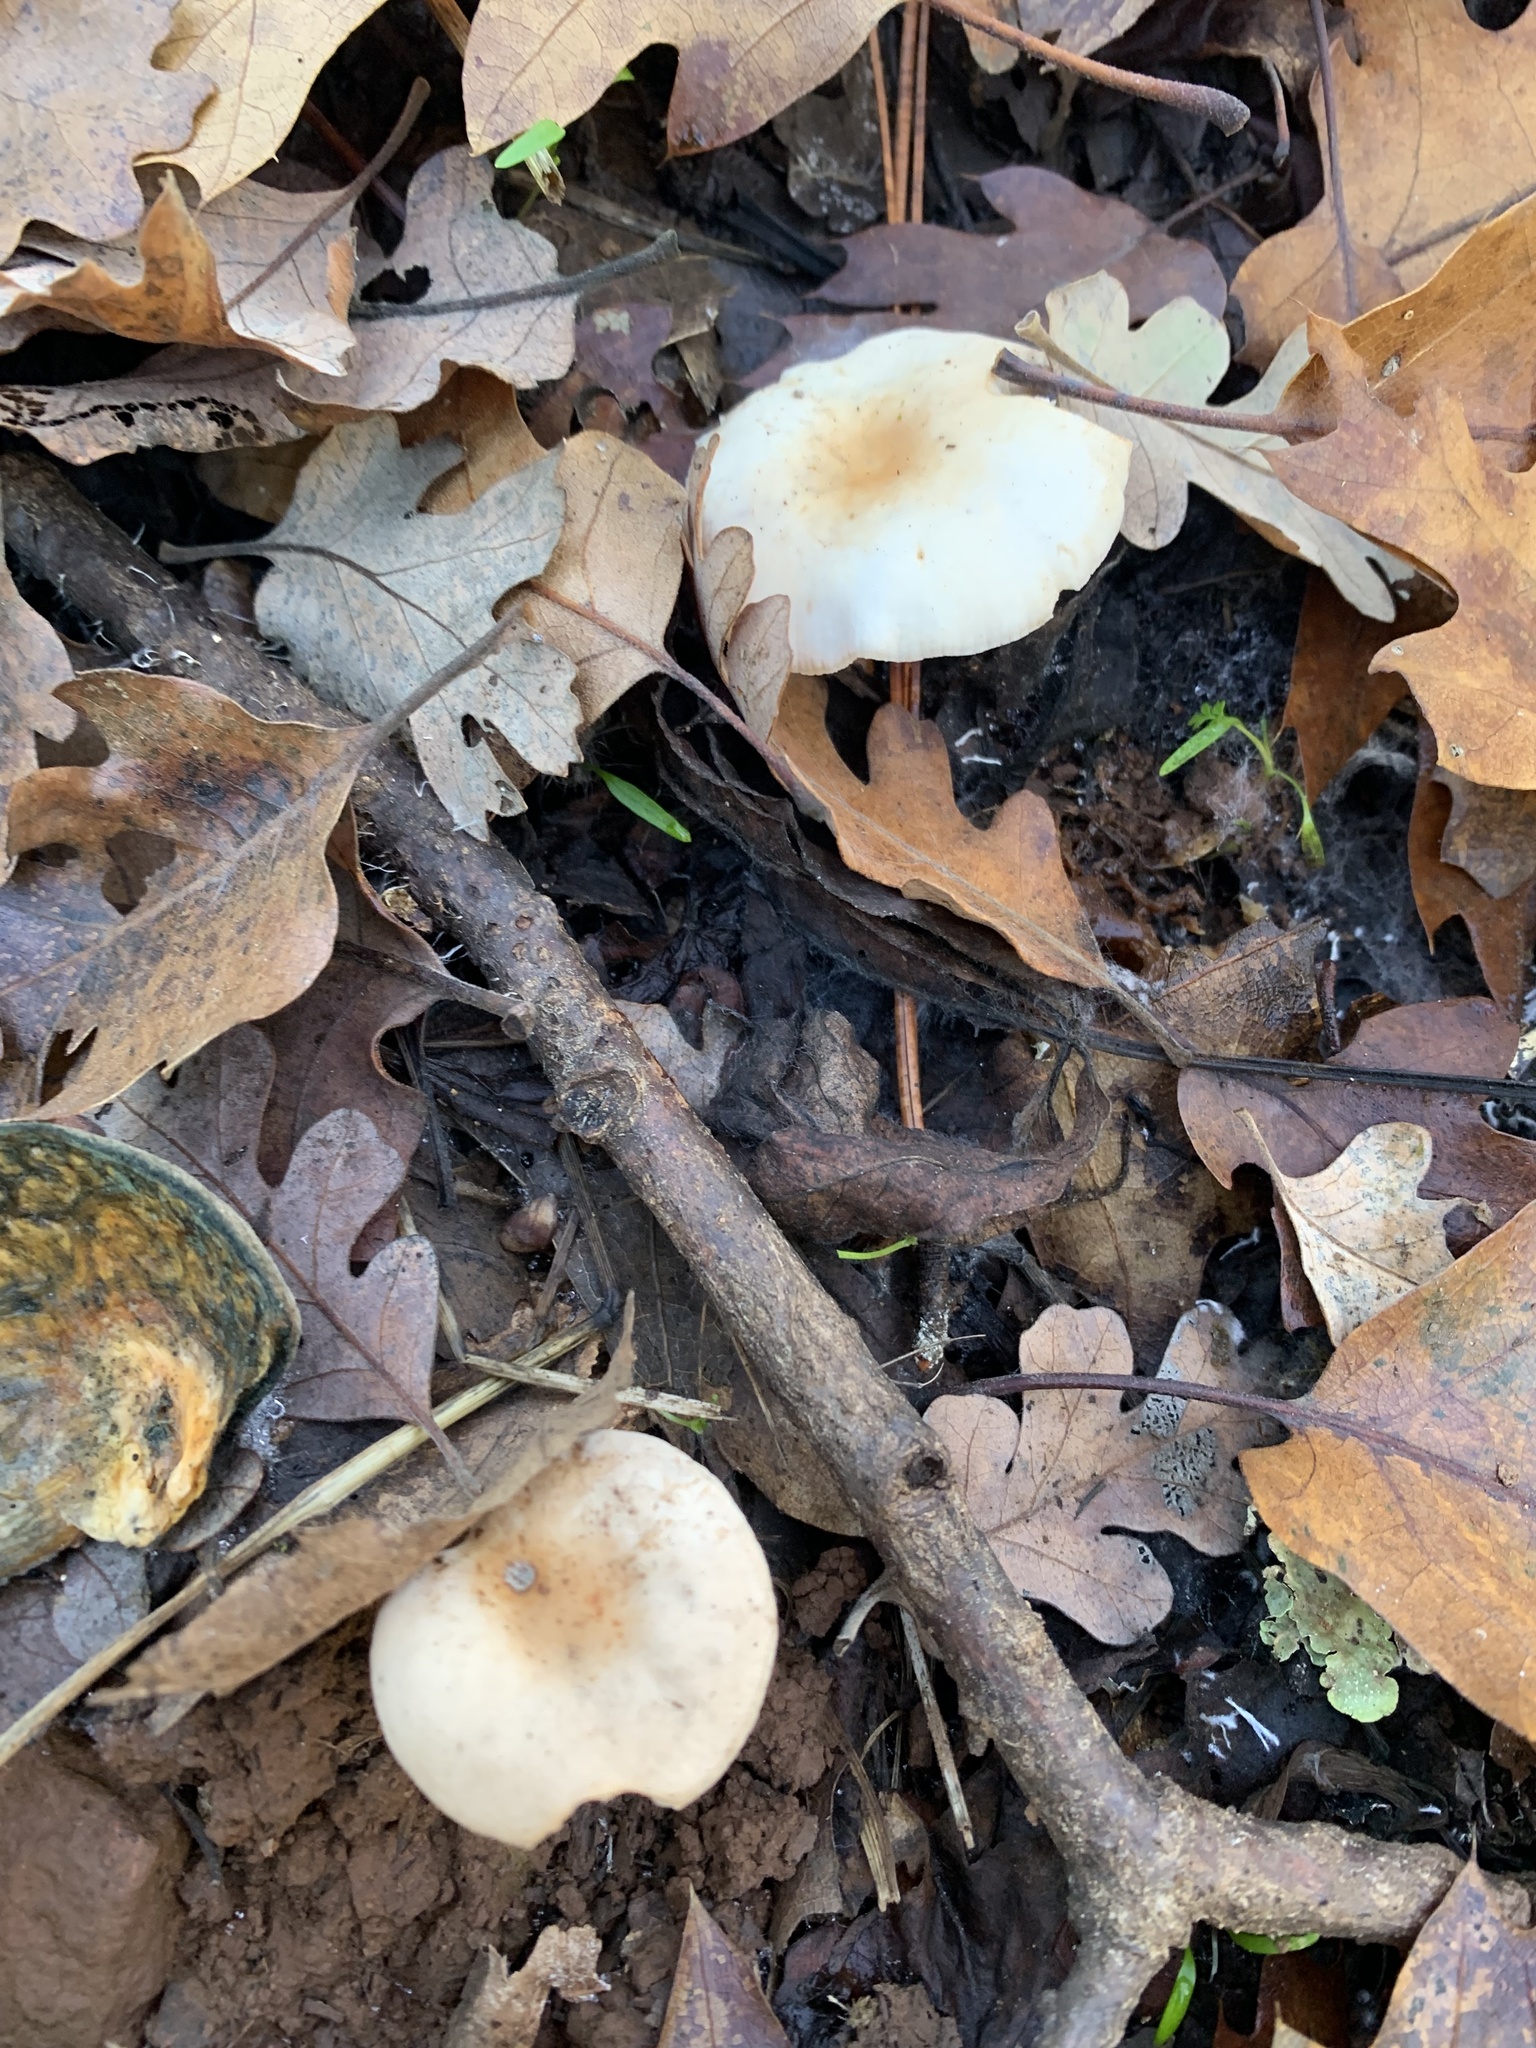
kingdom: Fungi
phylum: Basidiomycota
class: Agaricomycetes
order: Agaricales
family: Omphalotaceae
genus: Gymnopus
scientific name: Gymnopus dryophilus
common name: Penny top
